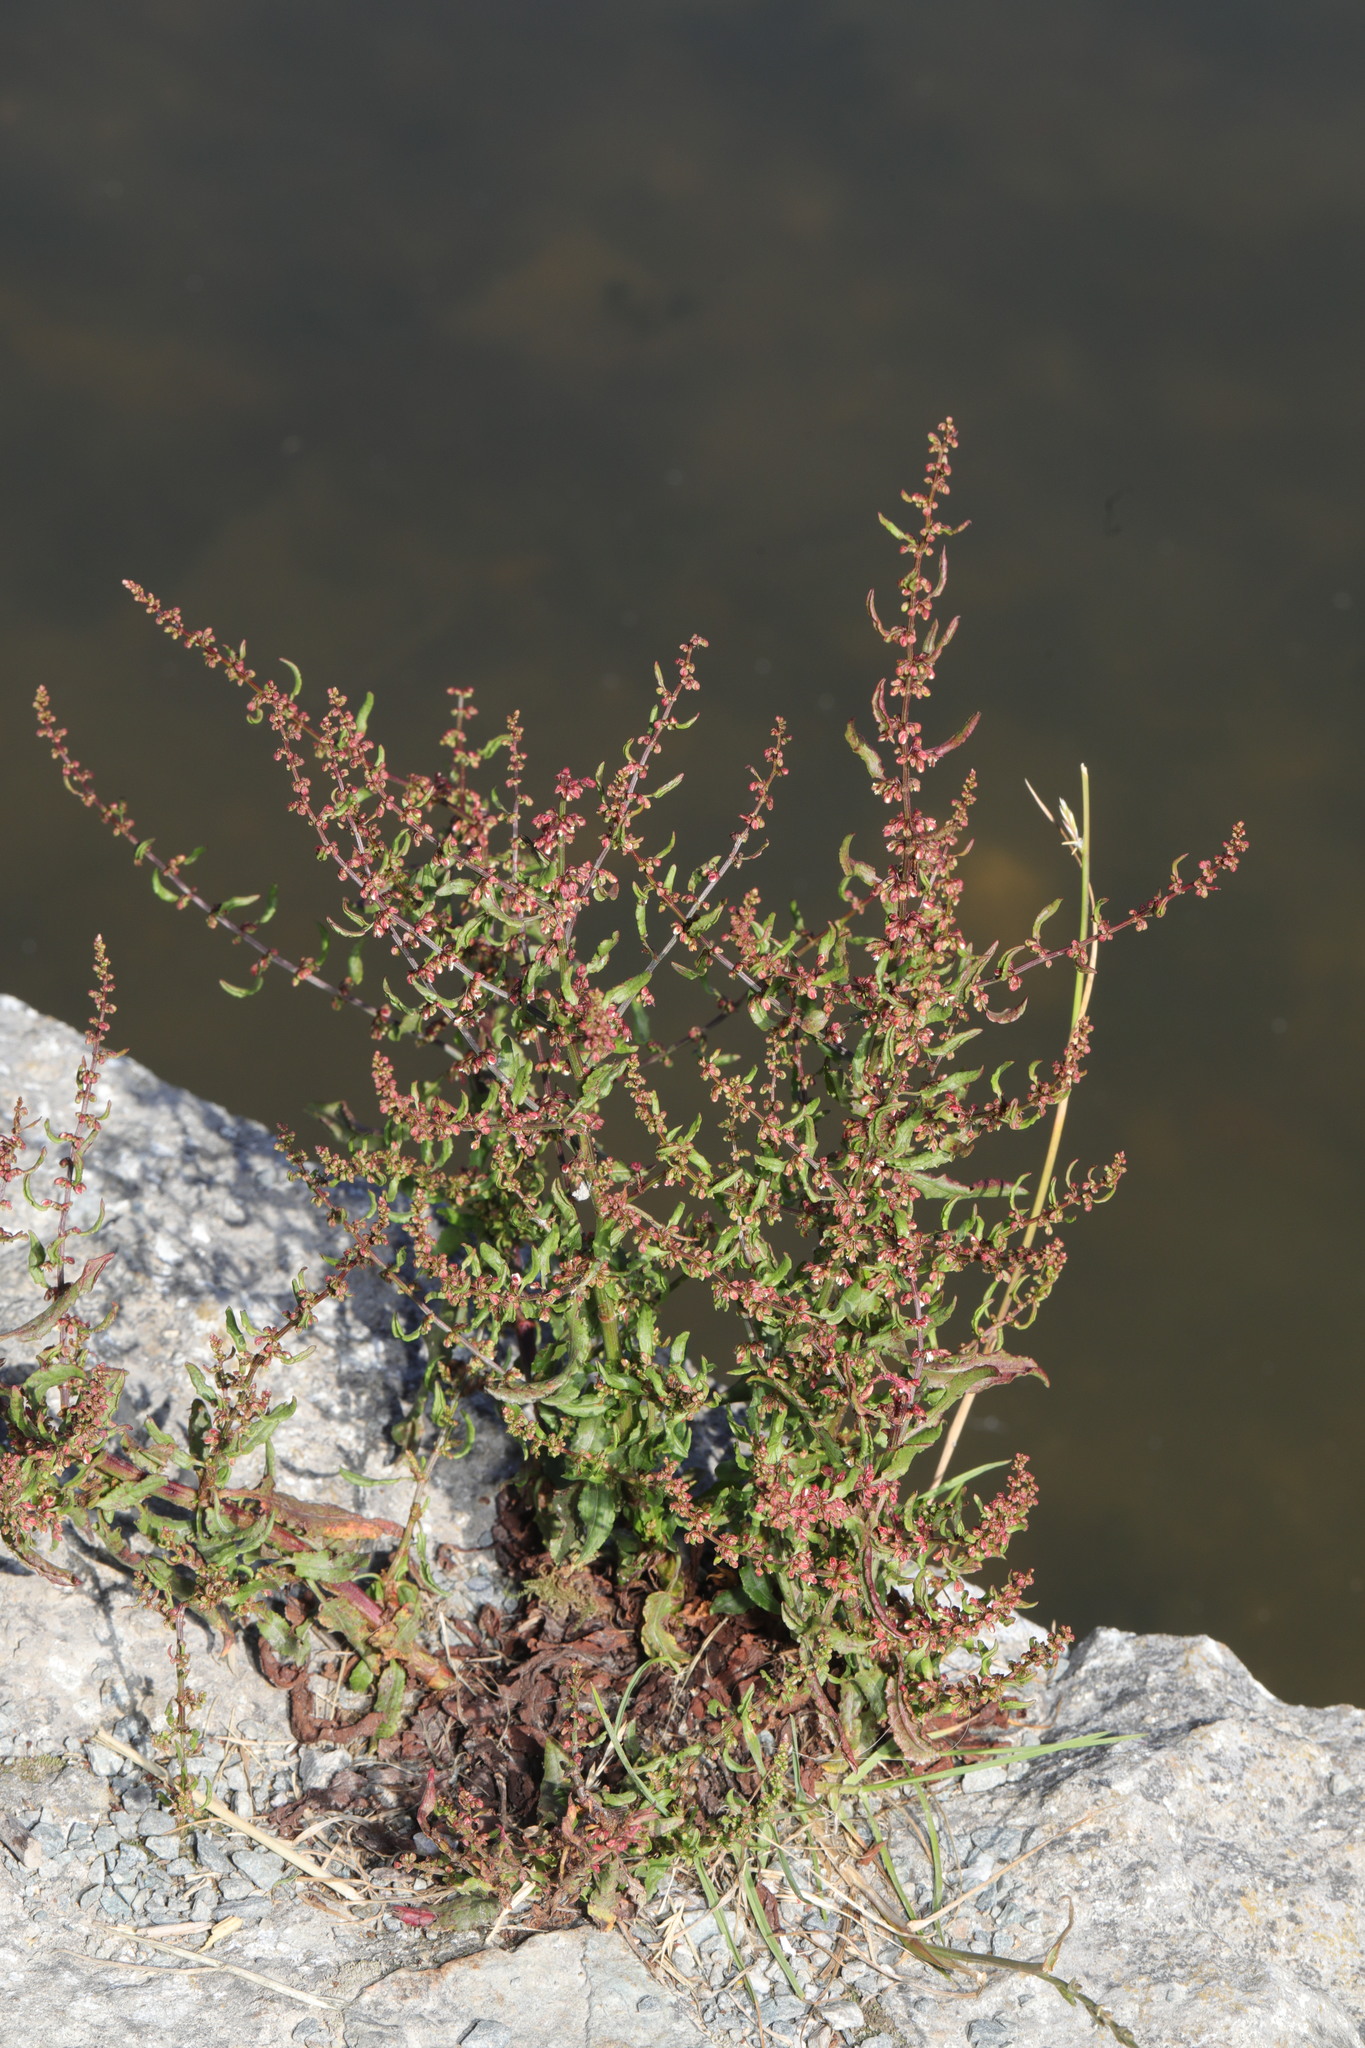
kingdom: Plantae
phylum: Tracheophyta
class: Magnoliopsida
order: Caryophyllales
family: Polygonaceae
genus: Rumex
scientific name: Rumex conglomeratus
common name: Clustered dock
